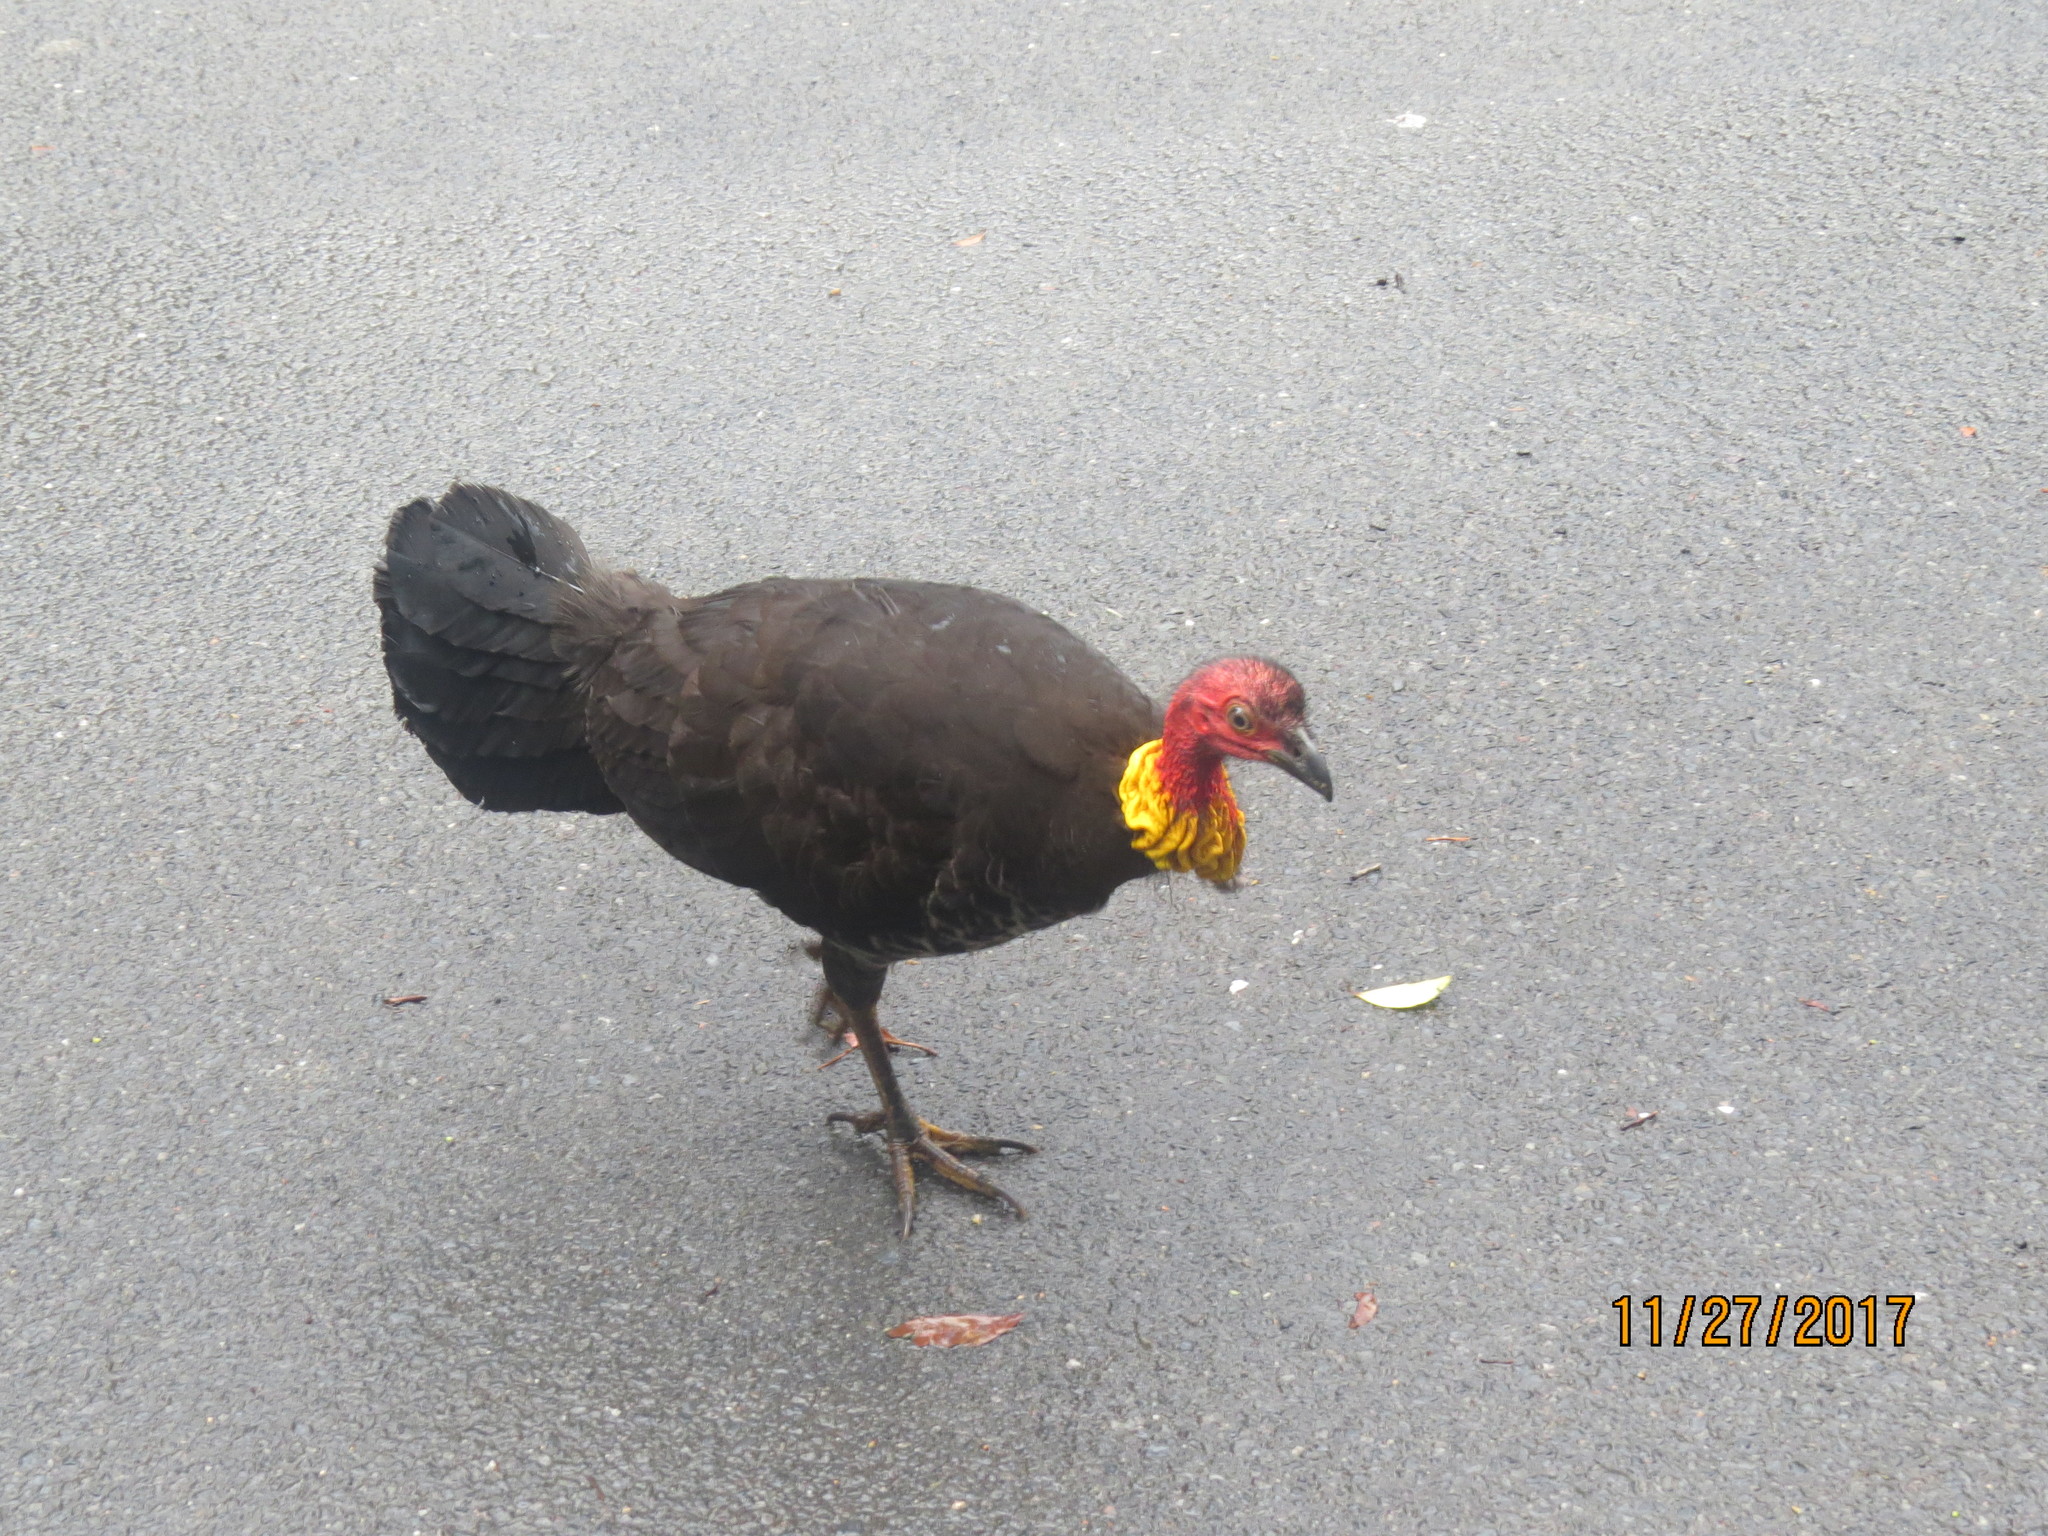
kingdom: Animalia
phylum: Chordata
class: Aves
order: Galliformes
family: Megapodiidae
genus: Alectura
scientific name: Alectura lathami
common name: Australian brushturkey
